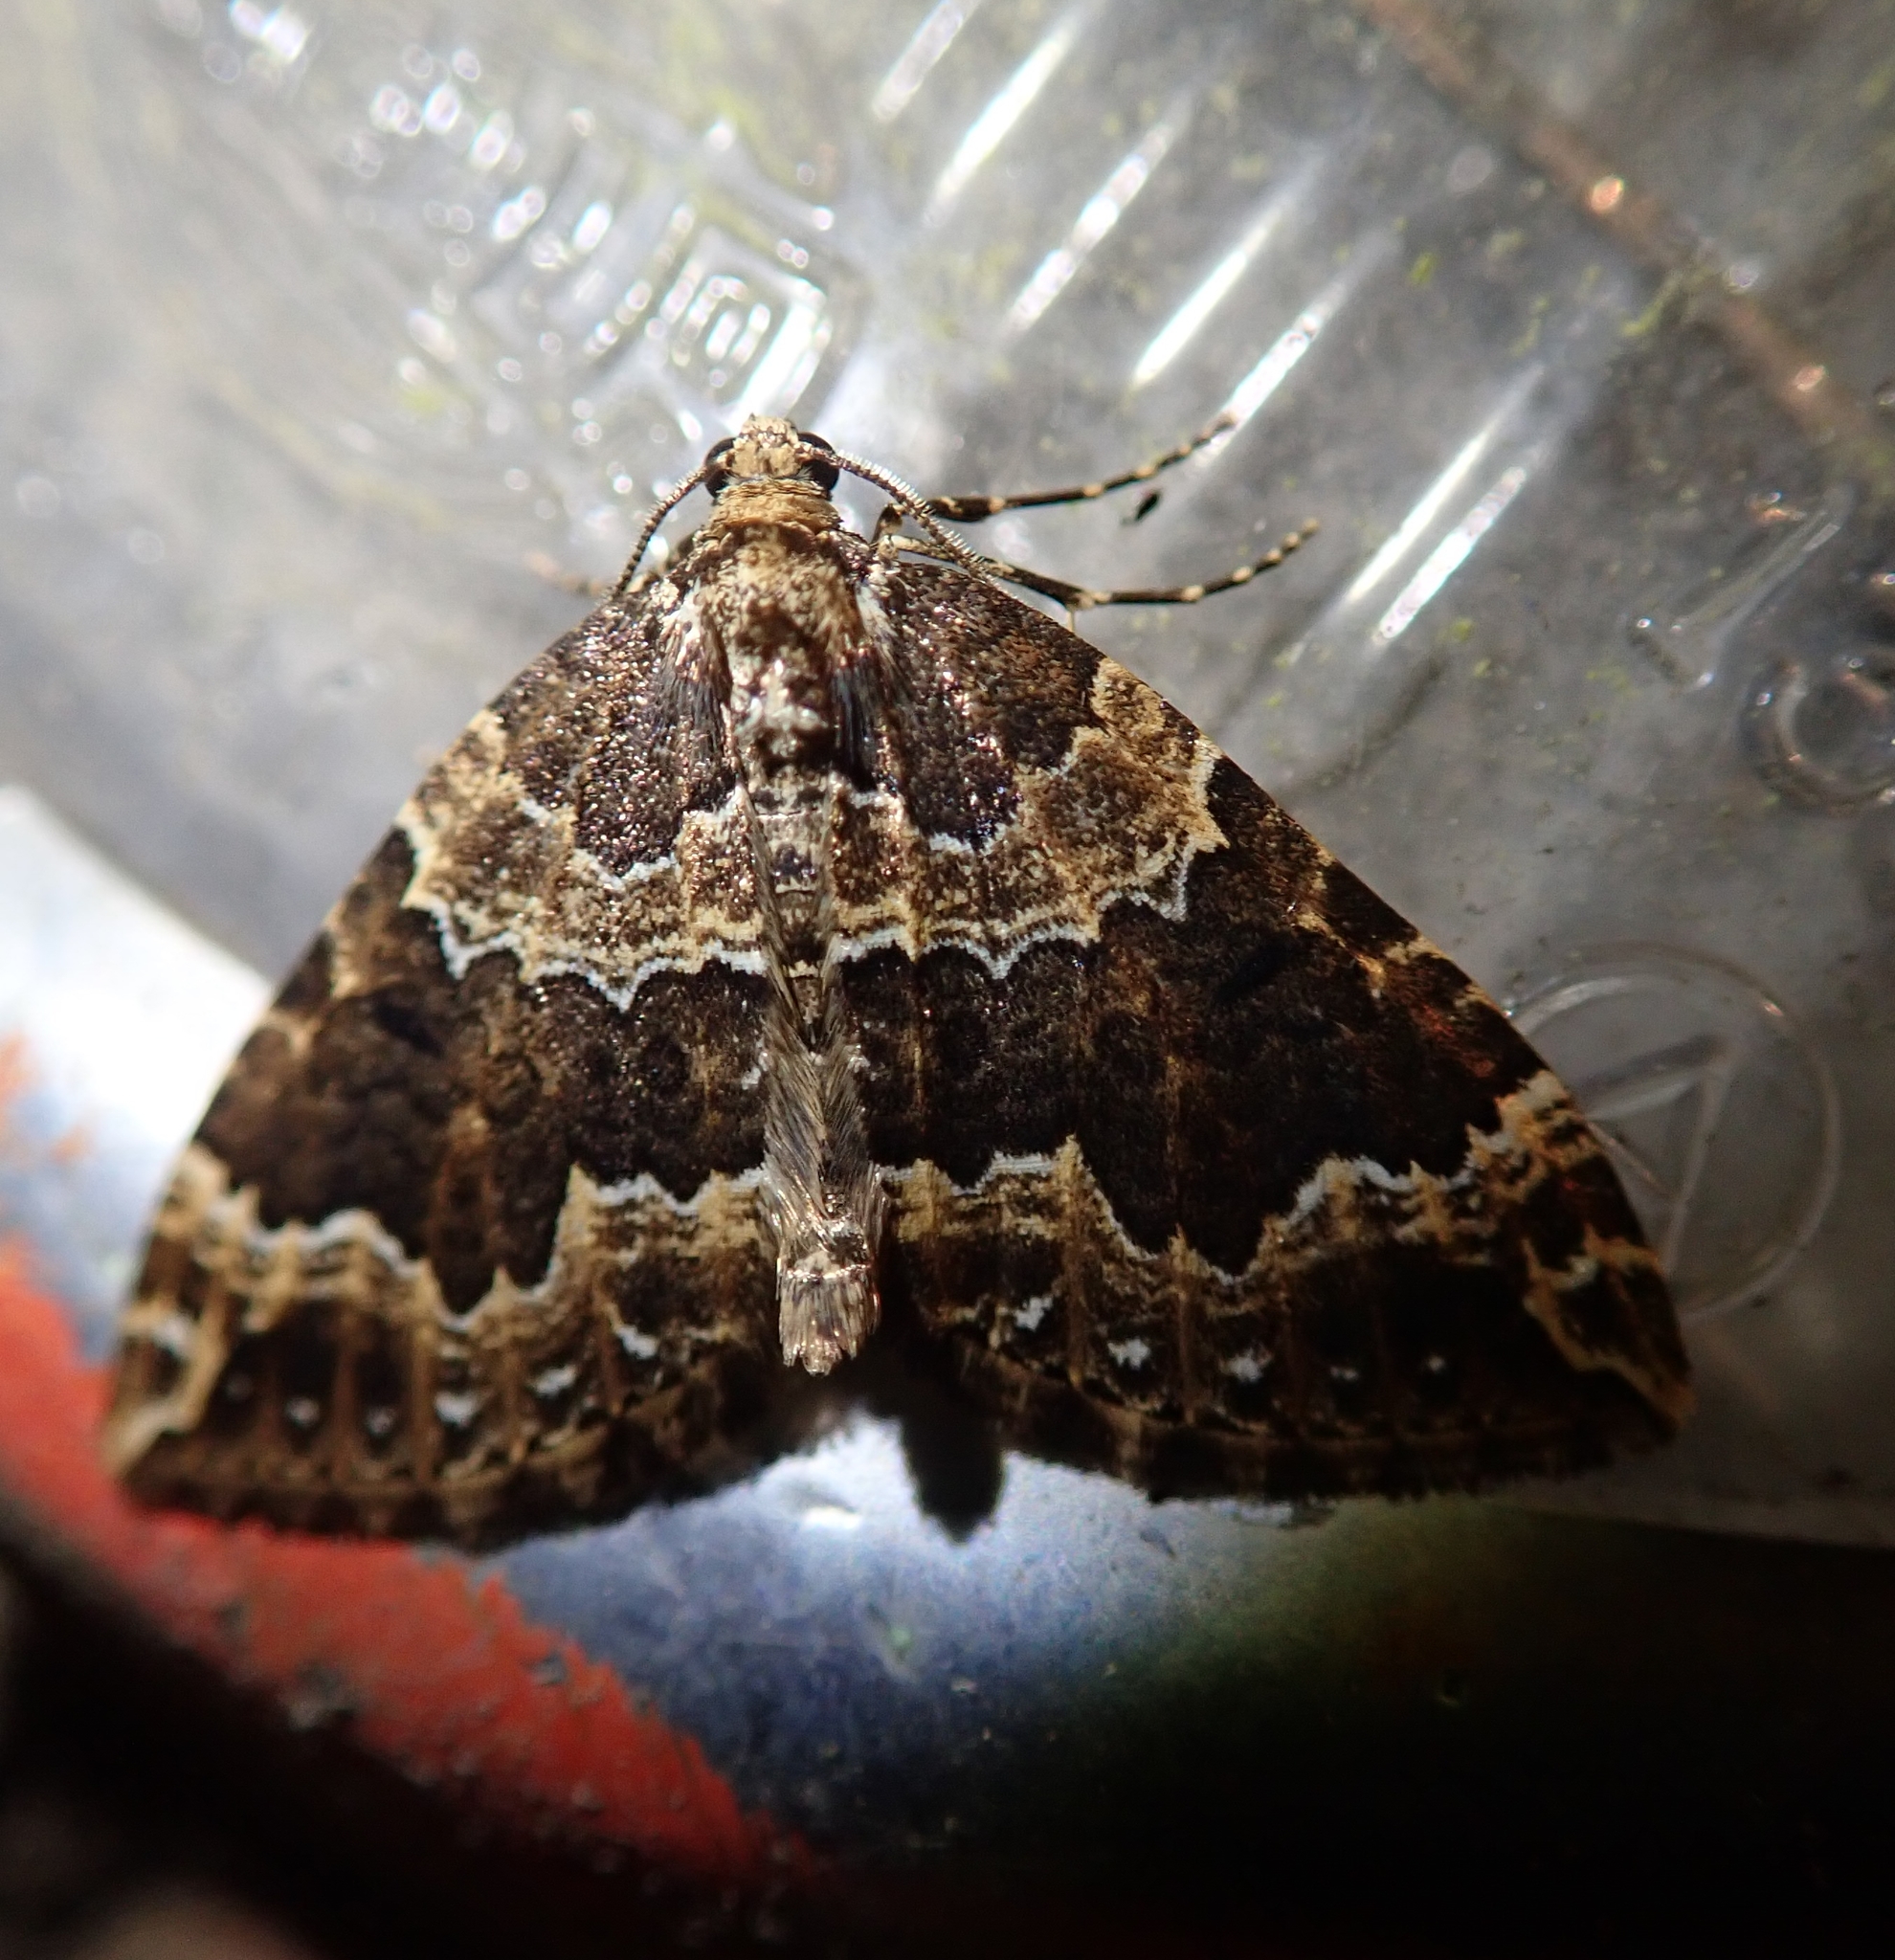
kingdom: Animalia
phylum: Arthropoda
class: Insecta
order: Lepidoptera
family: Geometridae
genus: Lampropteryx
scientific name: Lampropteryx suffumata
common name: Water carpet
